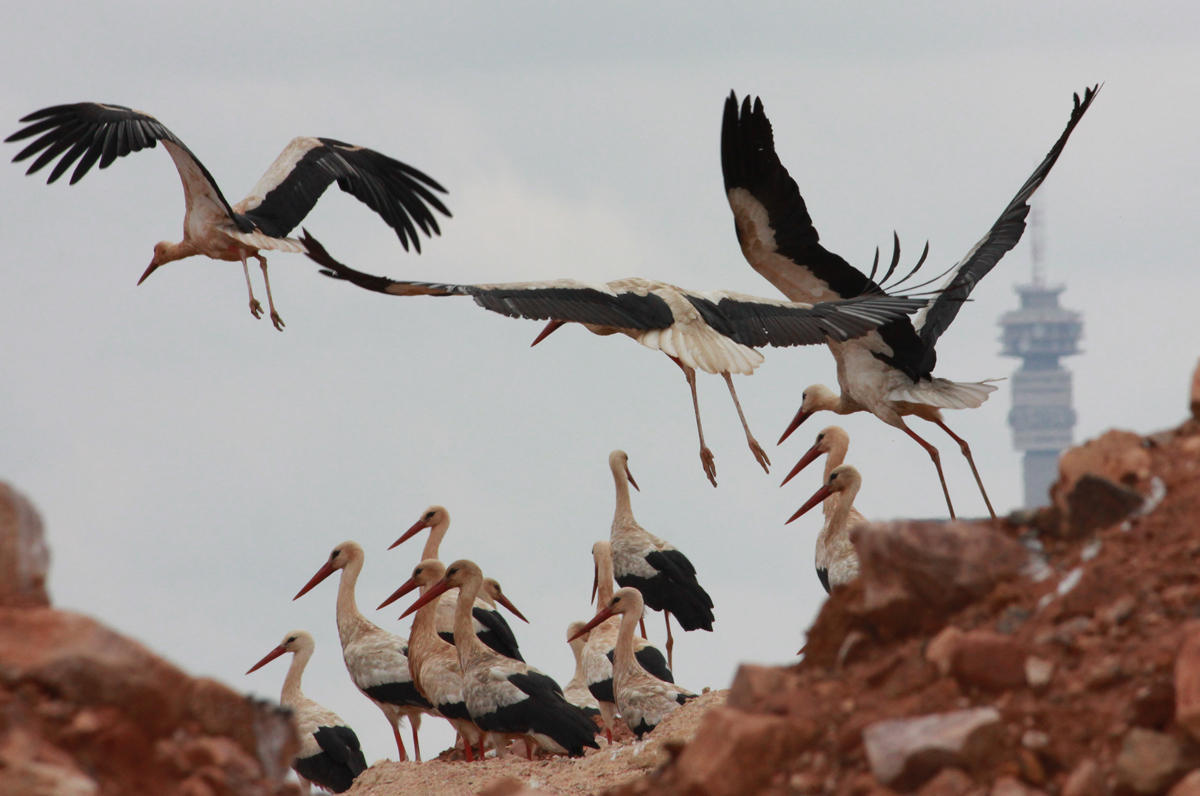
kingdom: Animalia
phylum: Chordata
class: Aves
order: Ciconiiformes
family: Ciconiidae
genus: Ciconia
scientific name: Ciconia ciconia
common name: White stork
